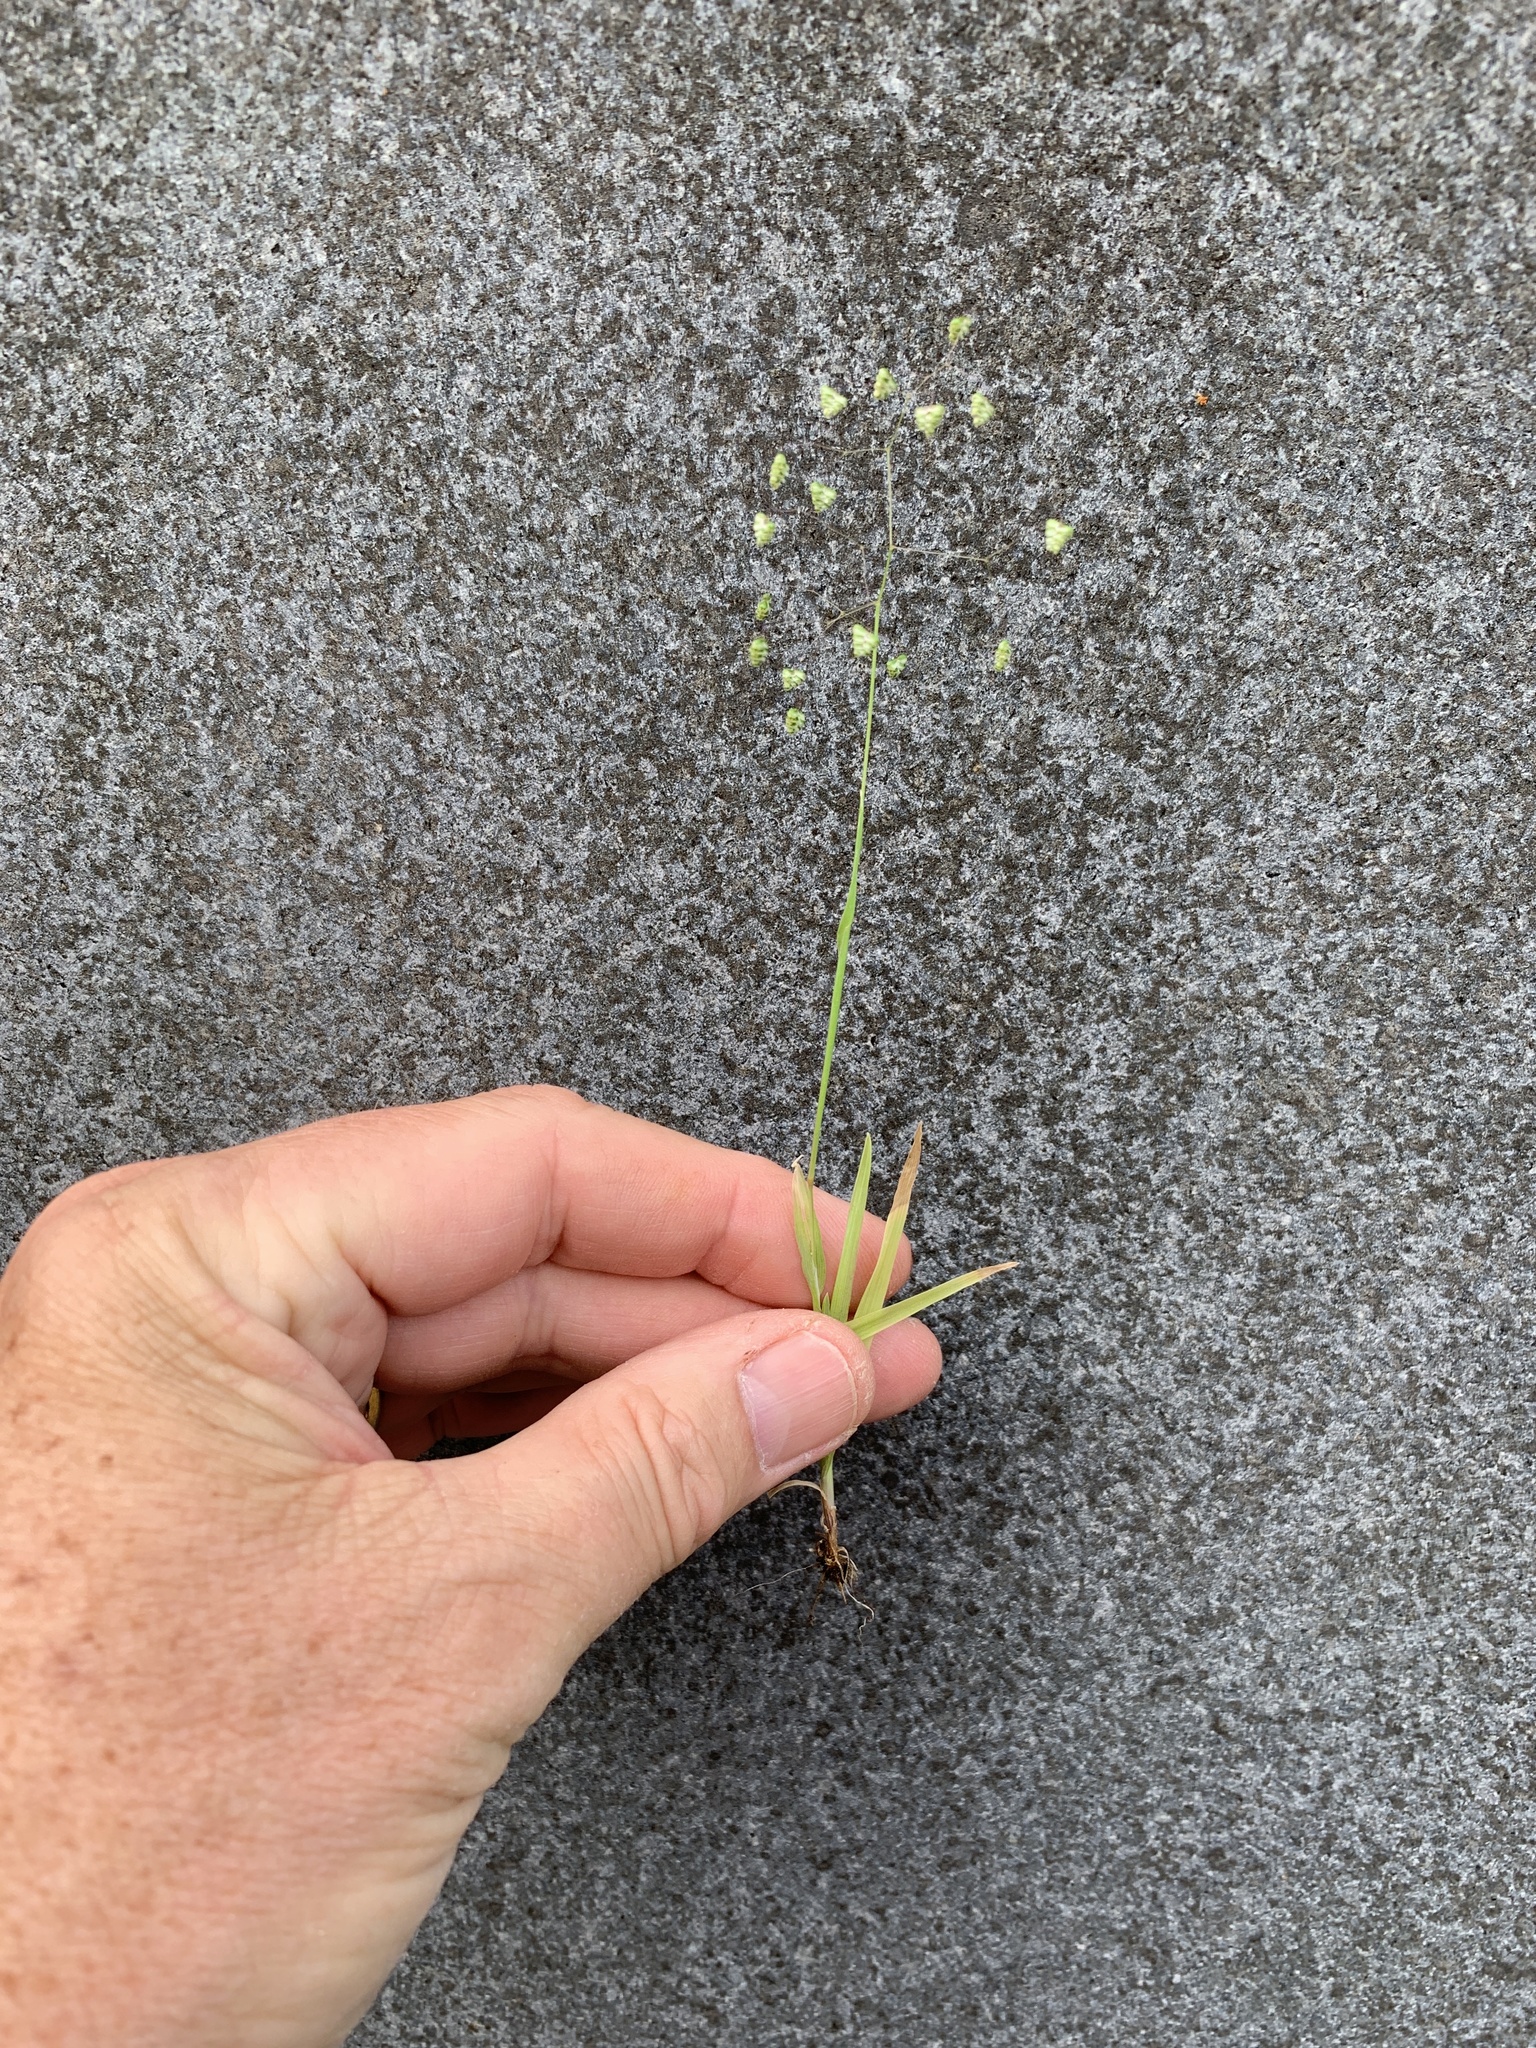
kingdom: Plantae
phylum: Tracheophyta
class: Liliopsida
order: Poales
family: Poaceae
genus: Briza
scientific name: Briza minor
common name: Lesser quaking-grass
